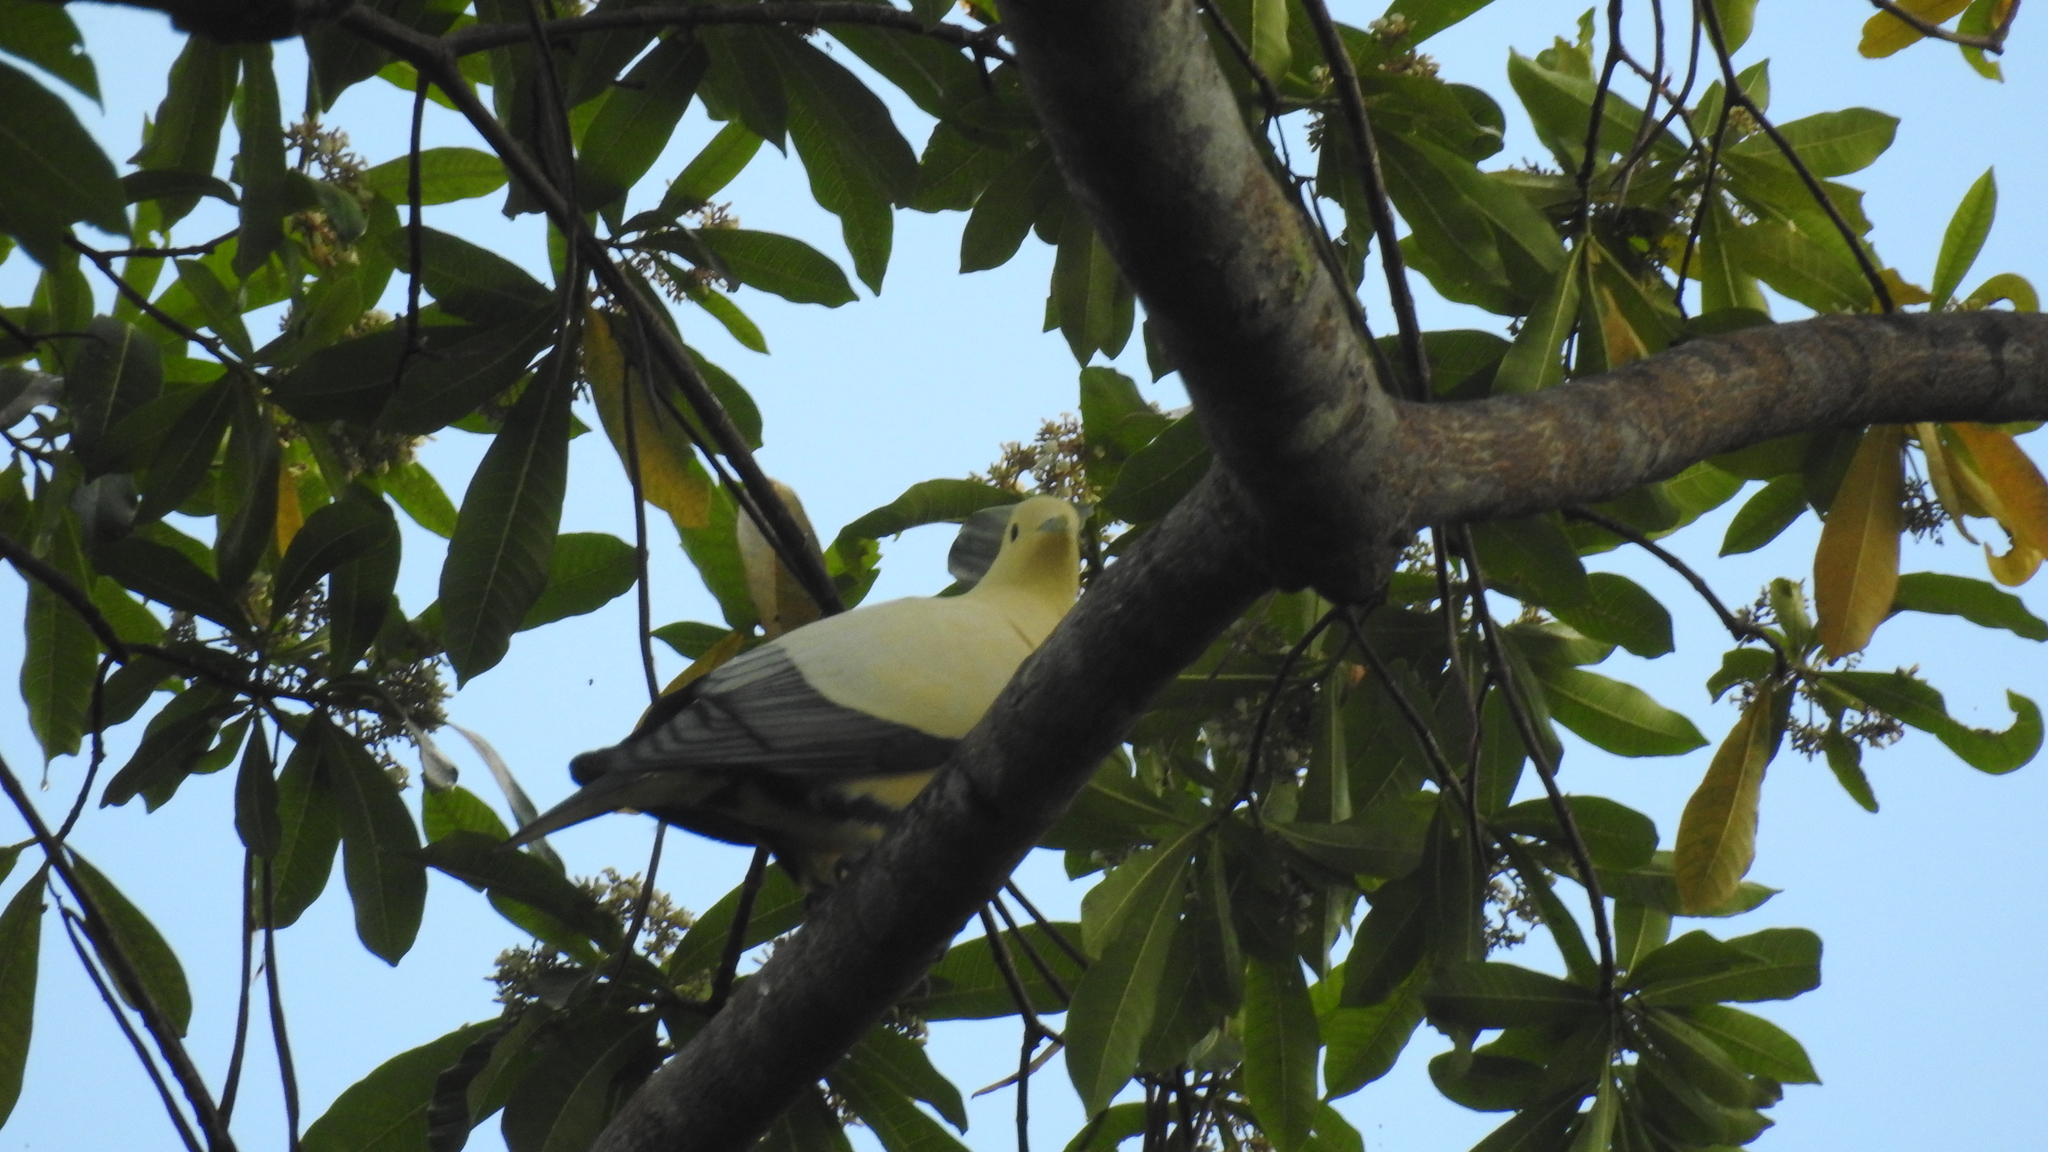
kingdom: Animalia
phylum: Chordata
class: Aves
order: Columbiformes
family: Columbidae
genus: Ducula
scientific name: Ducula luctuosa
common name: Silver-tipped imperial pigeon
